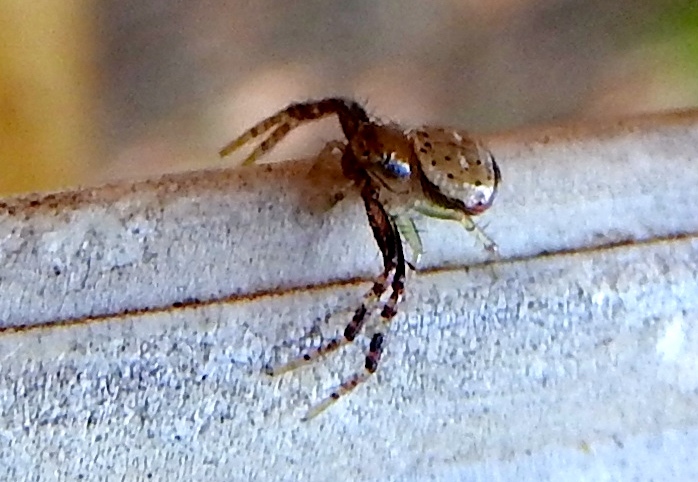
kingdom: Animalia
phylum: Arthropoda
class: Arachnida
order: Araneae
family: Thomisidae
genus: Synema
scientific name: Synema
